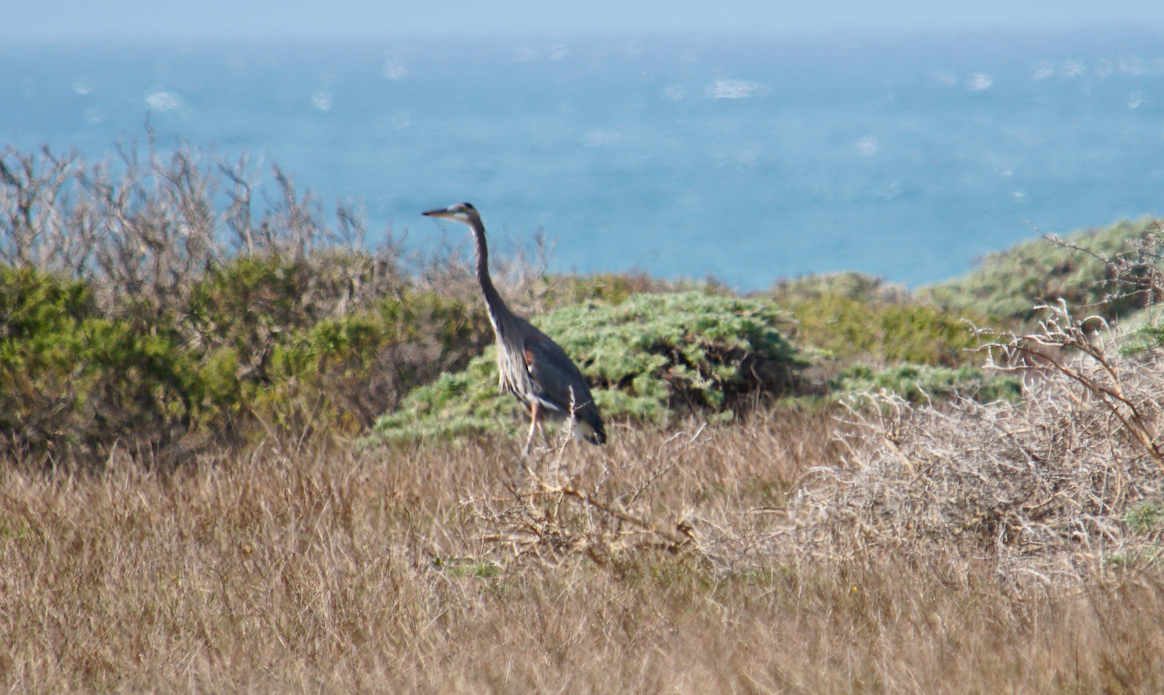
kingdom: Animalia
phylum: Chordata
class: Aves
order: Pelecaniformes
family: Ardeidae
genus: Ardea
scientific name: Ardea herodias
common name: Great blue heron
